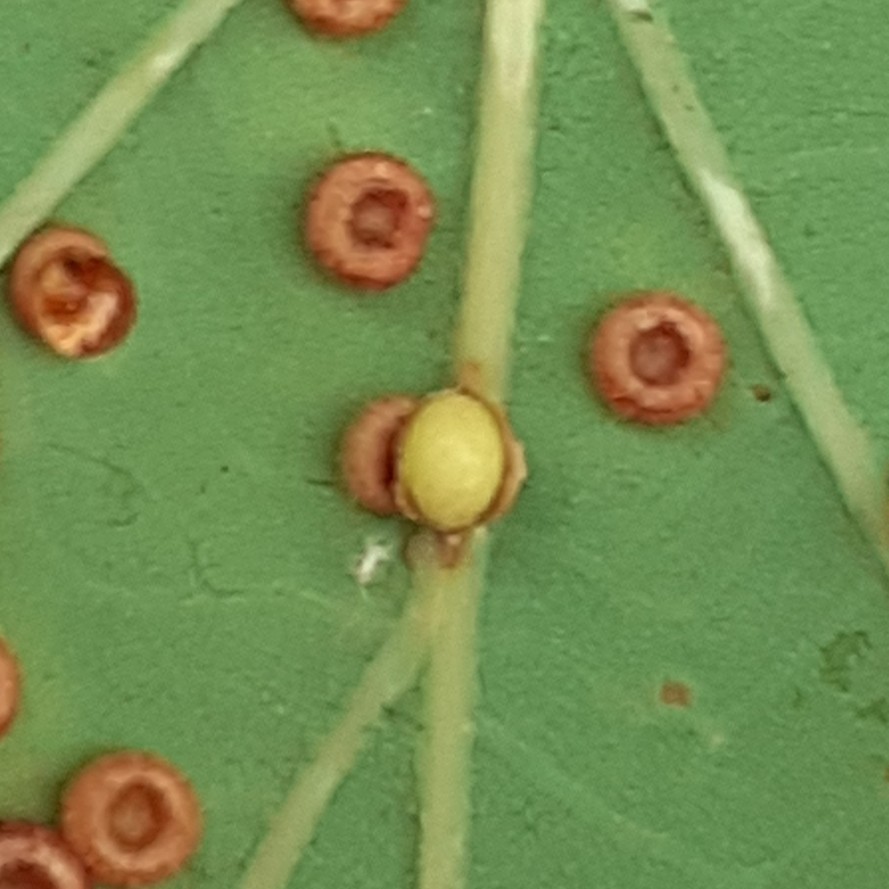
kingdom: Animalia
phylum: Arthropoda
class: Insecta
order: Hymenoptera
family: Cynipidae
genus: Neuroterus
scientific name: Neuroterus anthracinus
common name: Oyster gall
